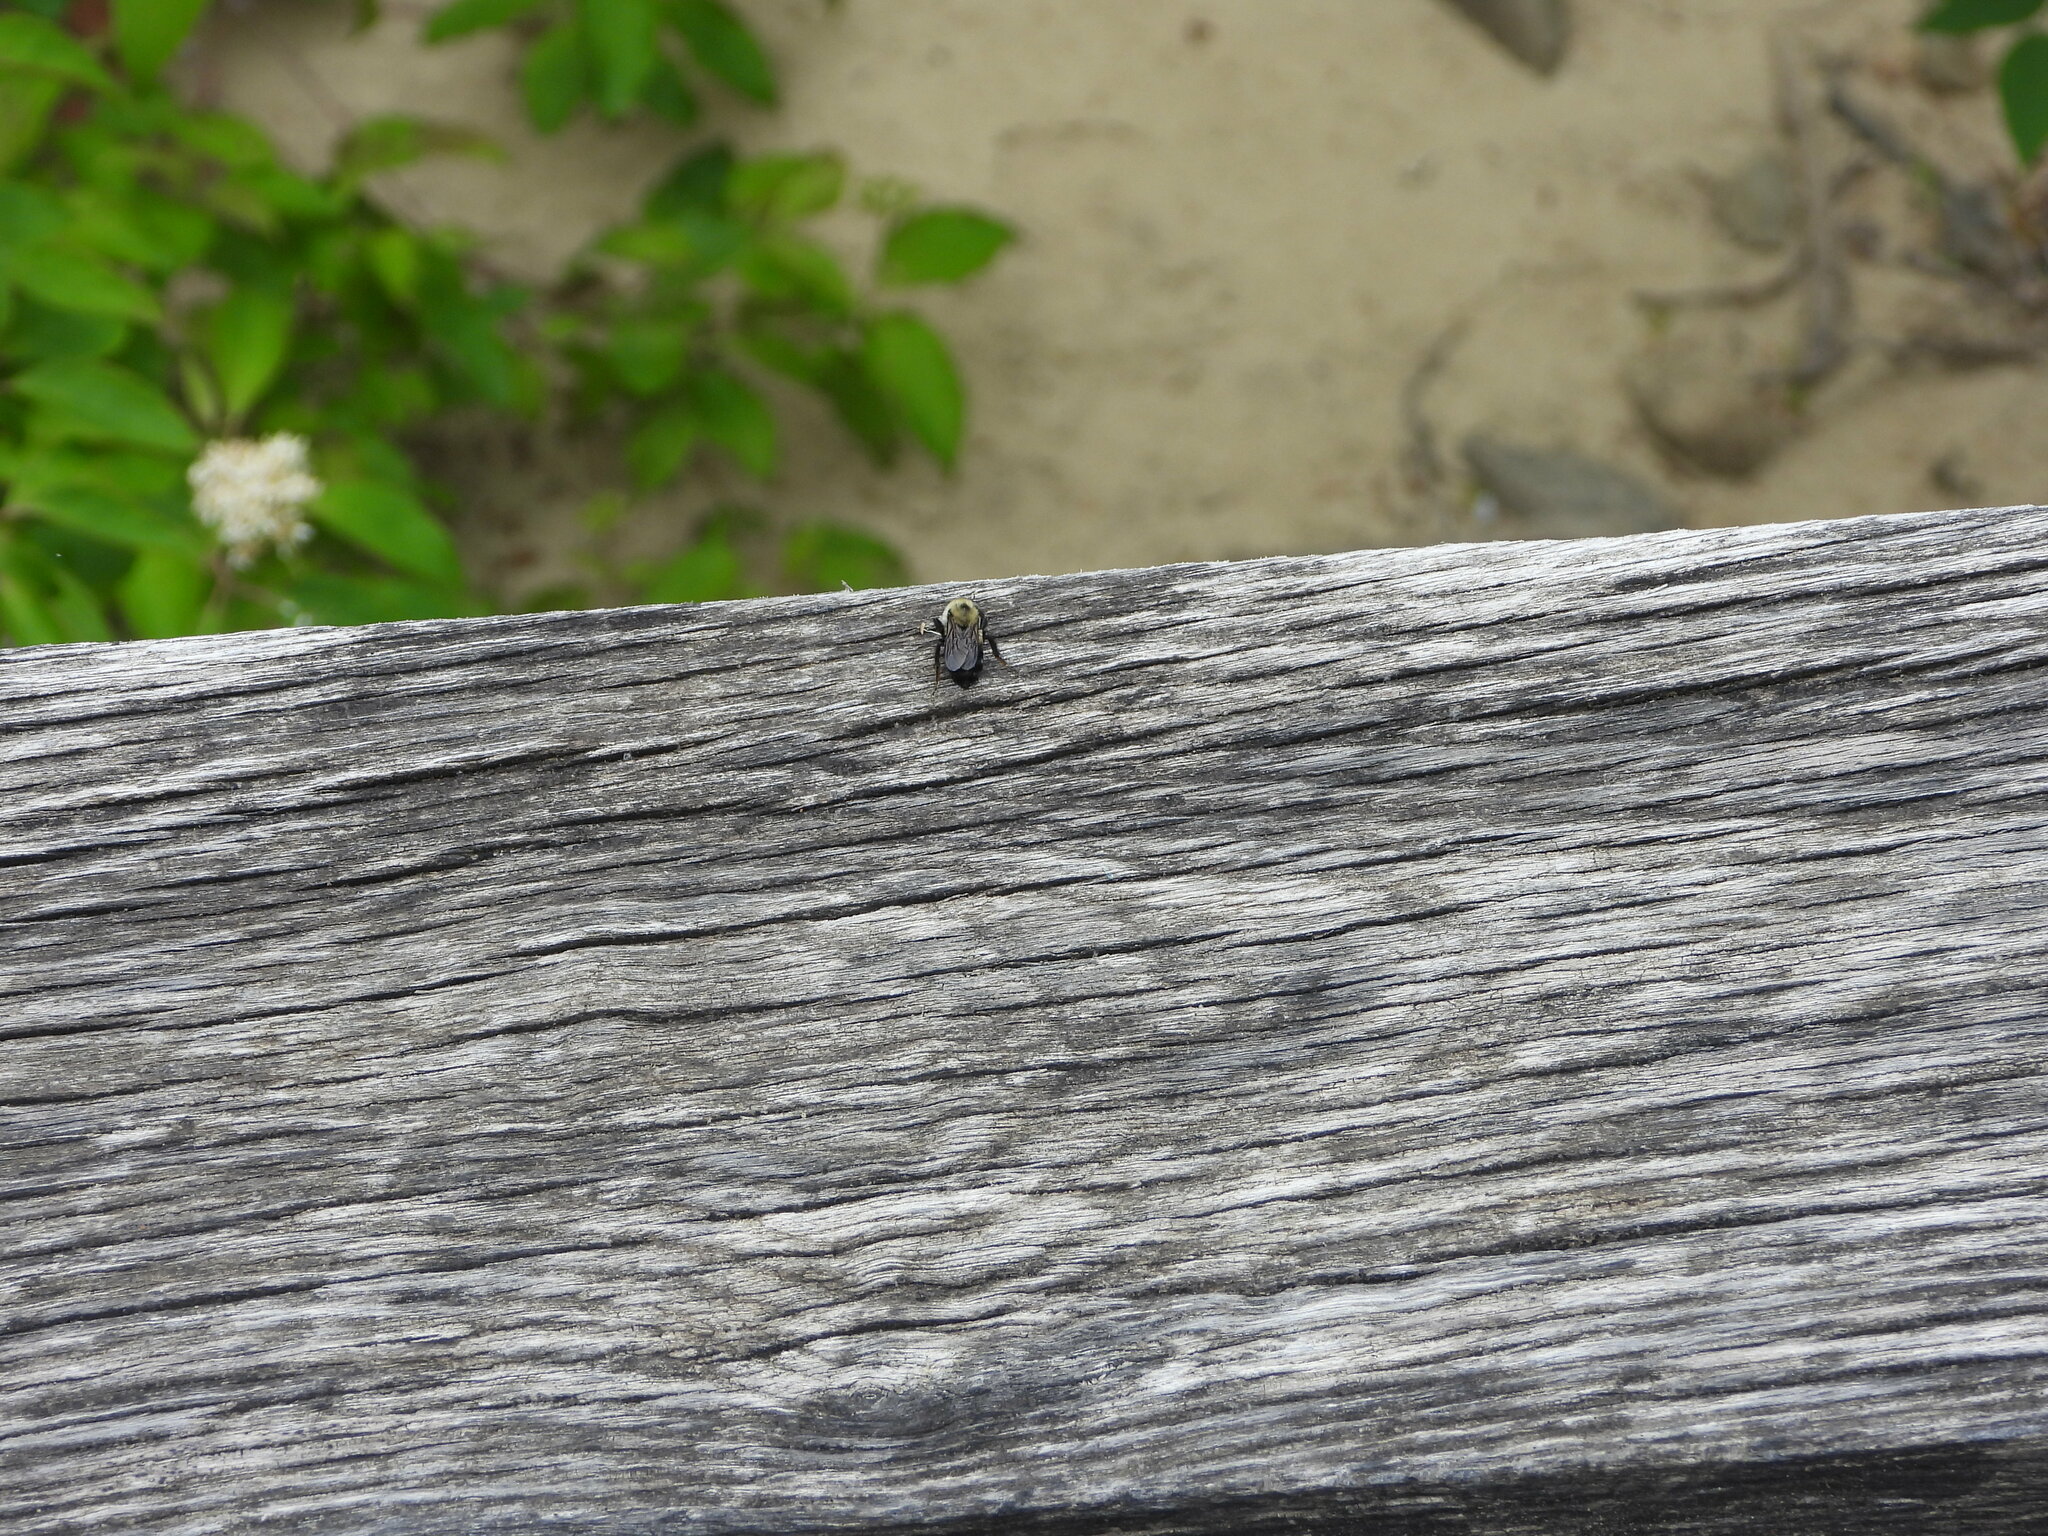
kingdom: Animalia
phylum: Arthropoda
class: Insecta
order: Hymenoptera
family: Apidae
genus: Bombus
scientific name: Bombus griseocollis
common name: Brown-belted bumble bee
